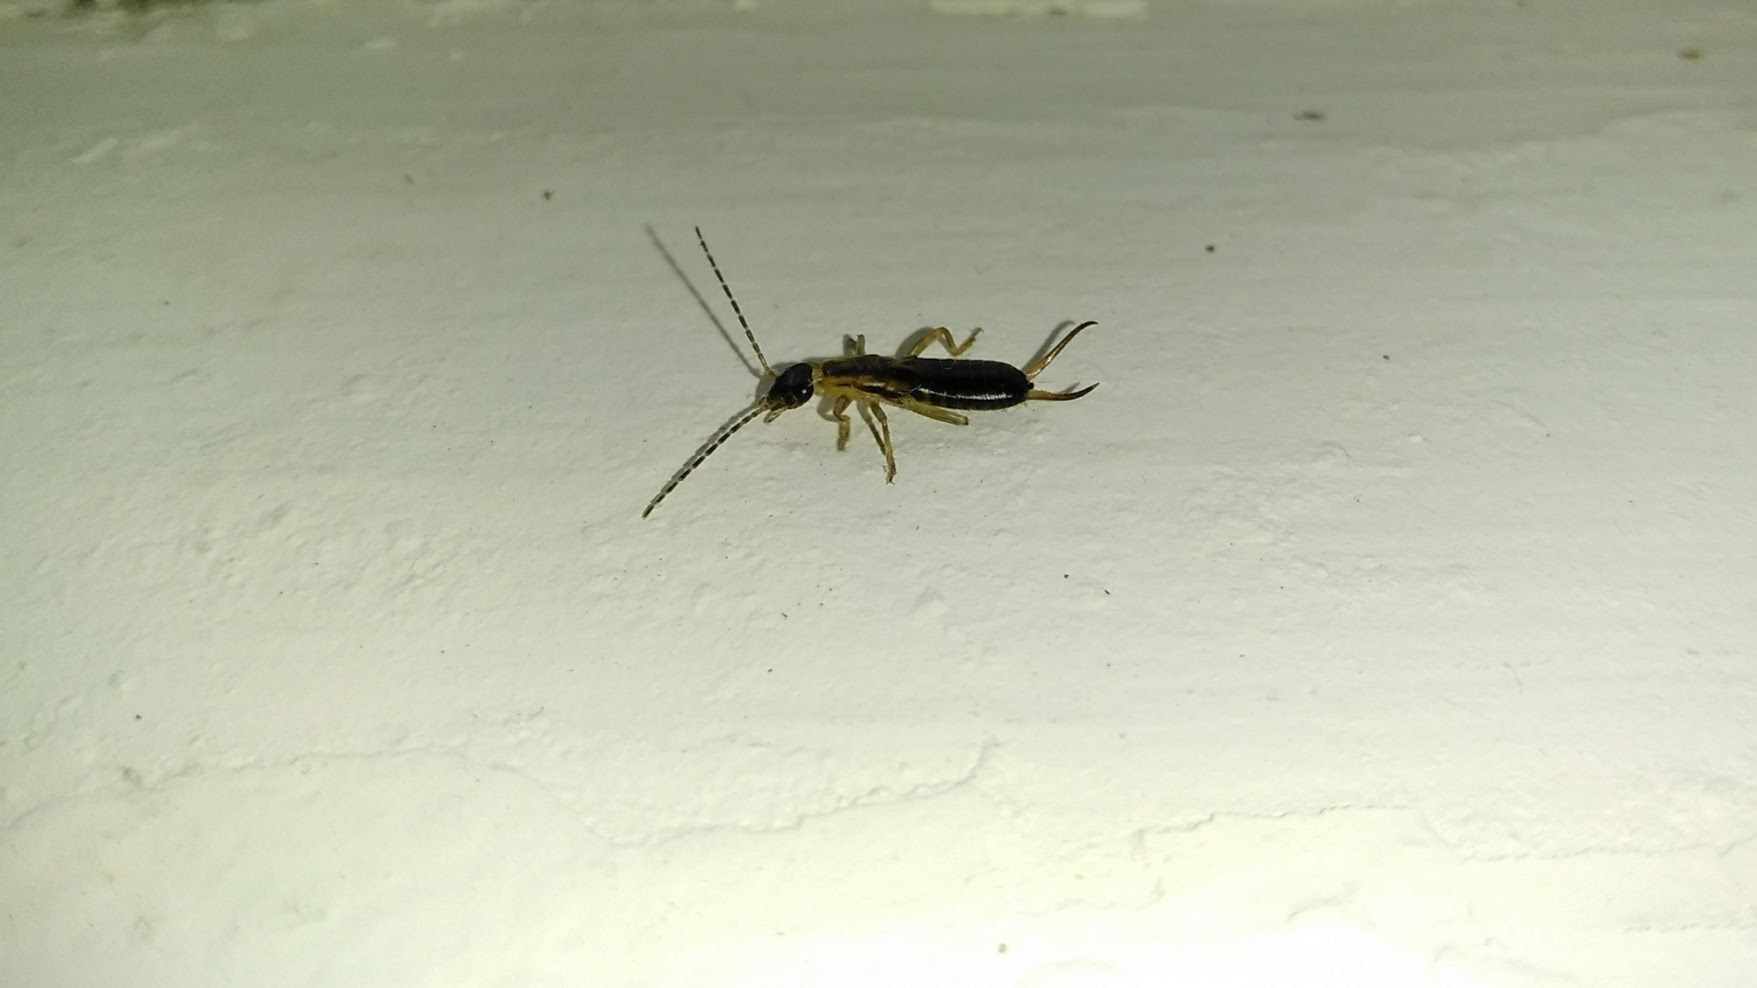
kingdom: Animalia
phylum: Arthropoda
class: Insecta
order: Dermaptera
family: Forficulidae
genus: Forficula
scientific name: Forficula
